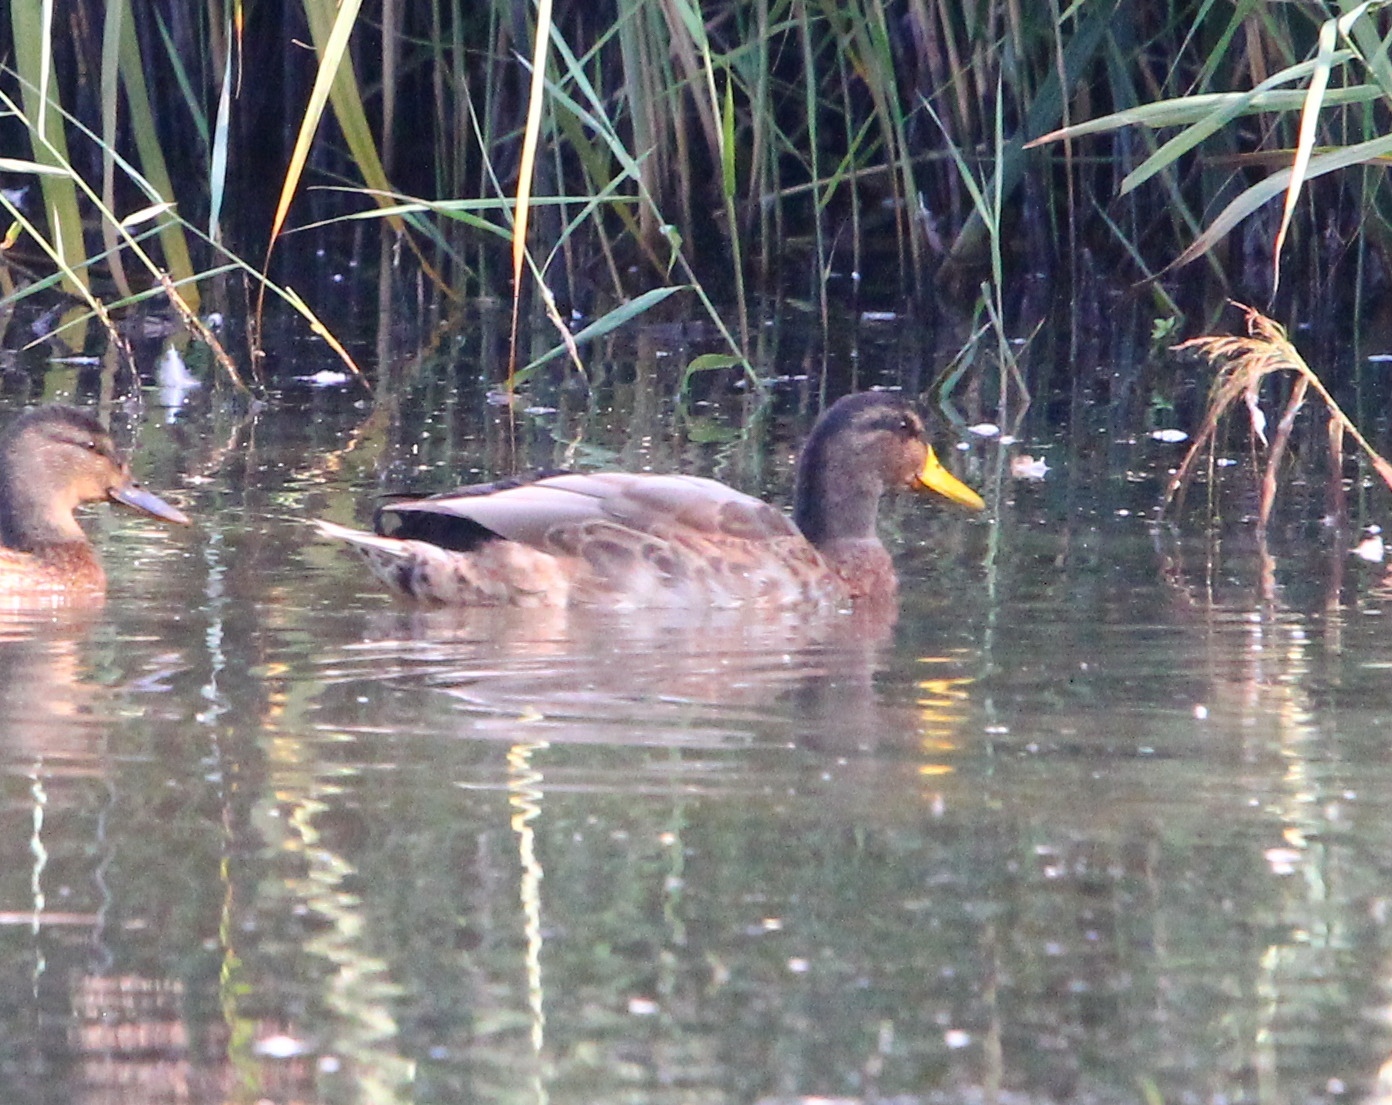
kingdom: Animalia
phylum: Chordata
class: Aves
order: Anseriformes
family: Anatidae
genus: Anas
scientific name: Anas platyrhynchos
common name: Mallard
